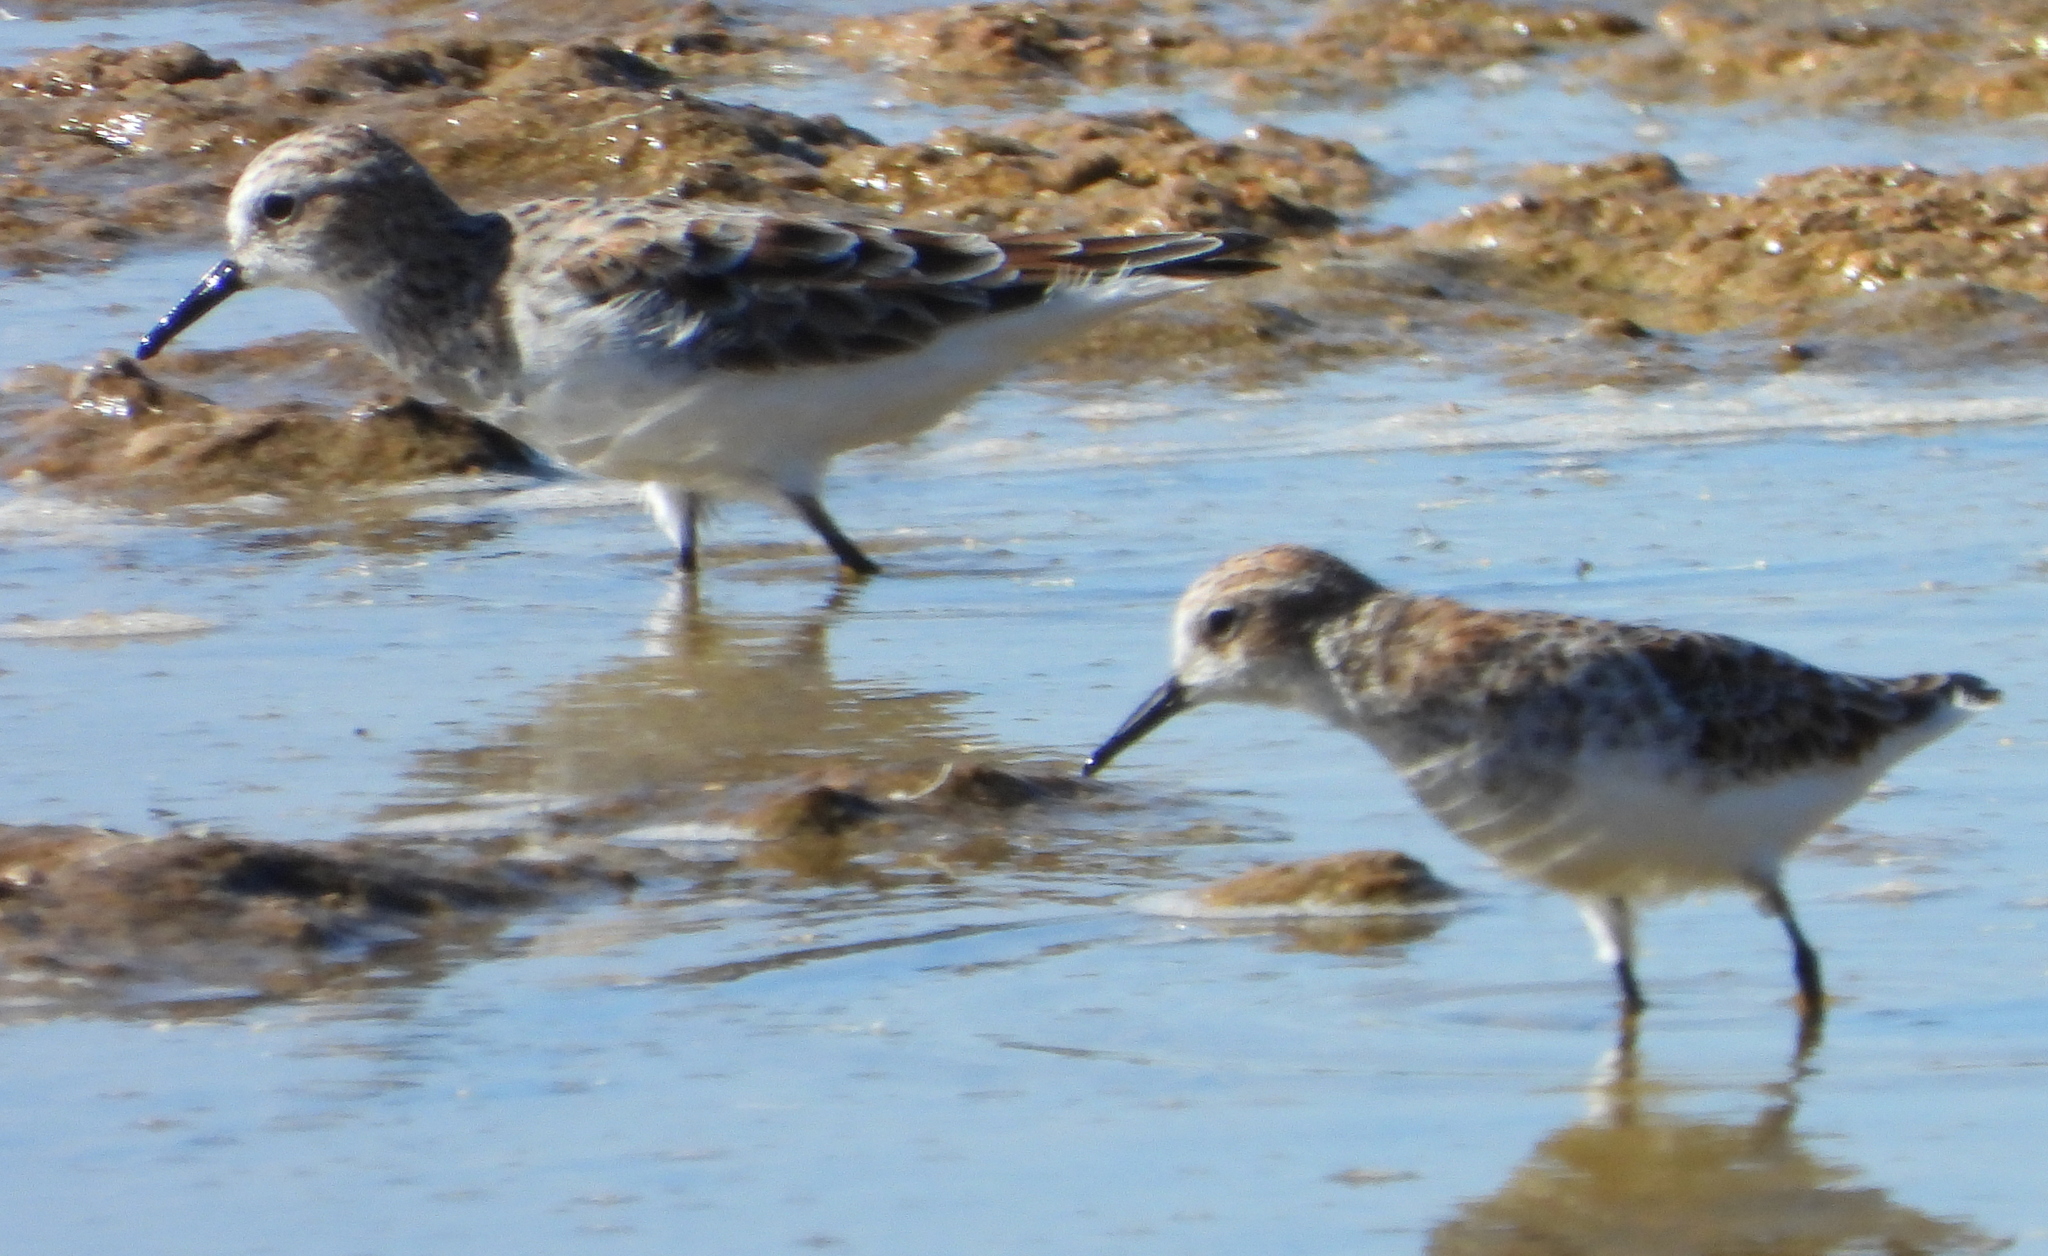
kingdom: Animalia
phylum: Chordata
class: Aves
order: Charadriiformes
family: Scolopacidae
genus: Calidris
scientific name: Calidris minuta
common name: Little stint
